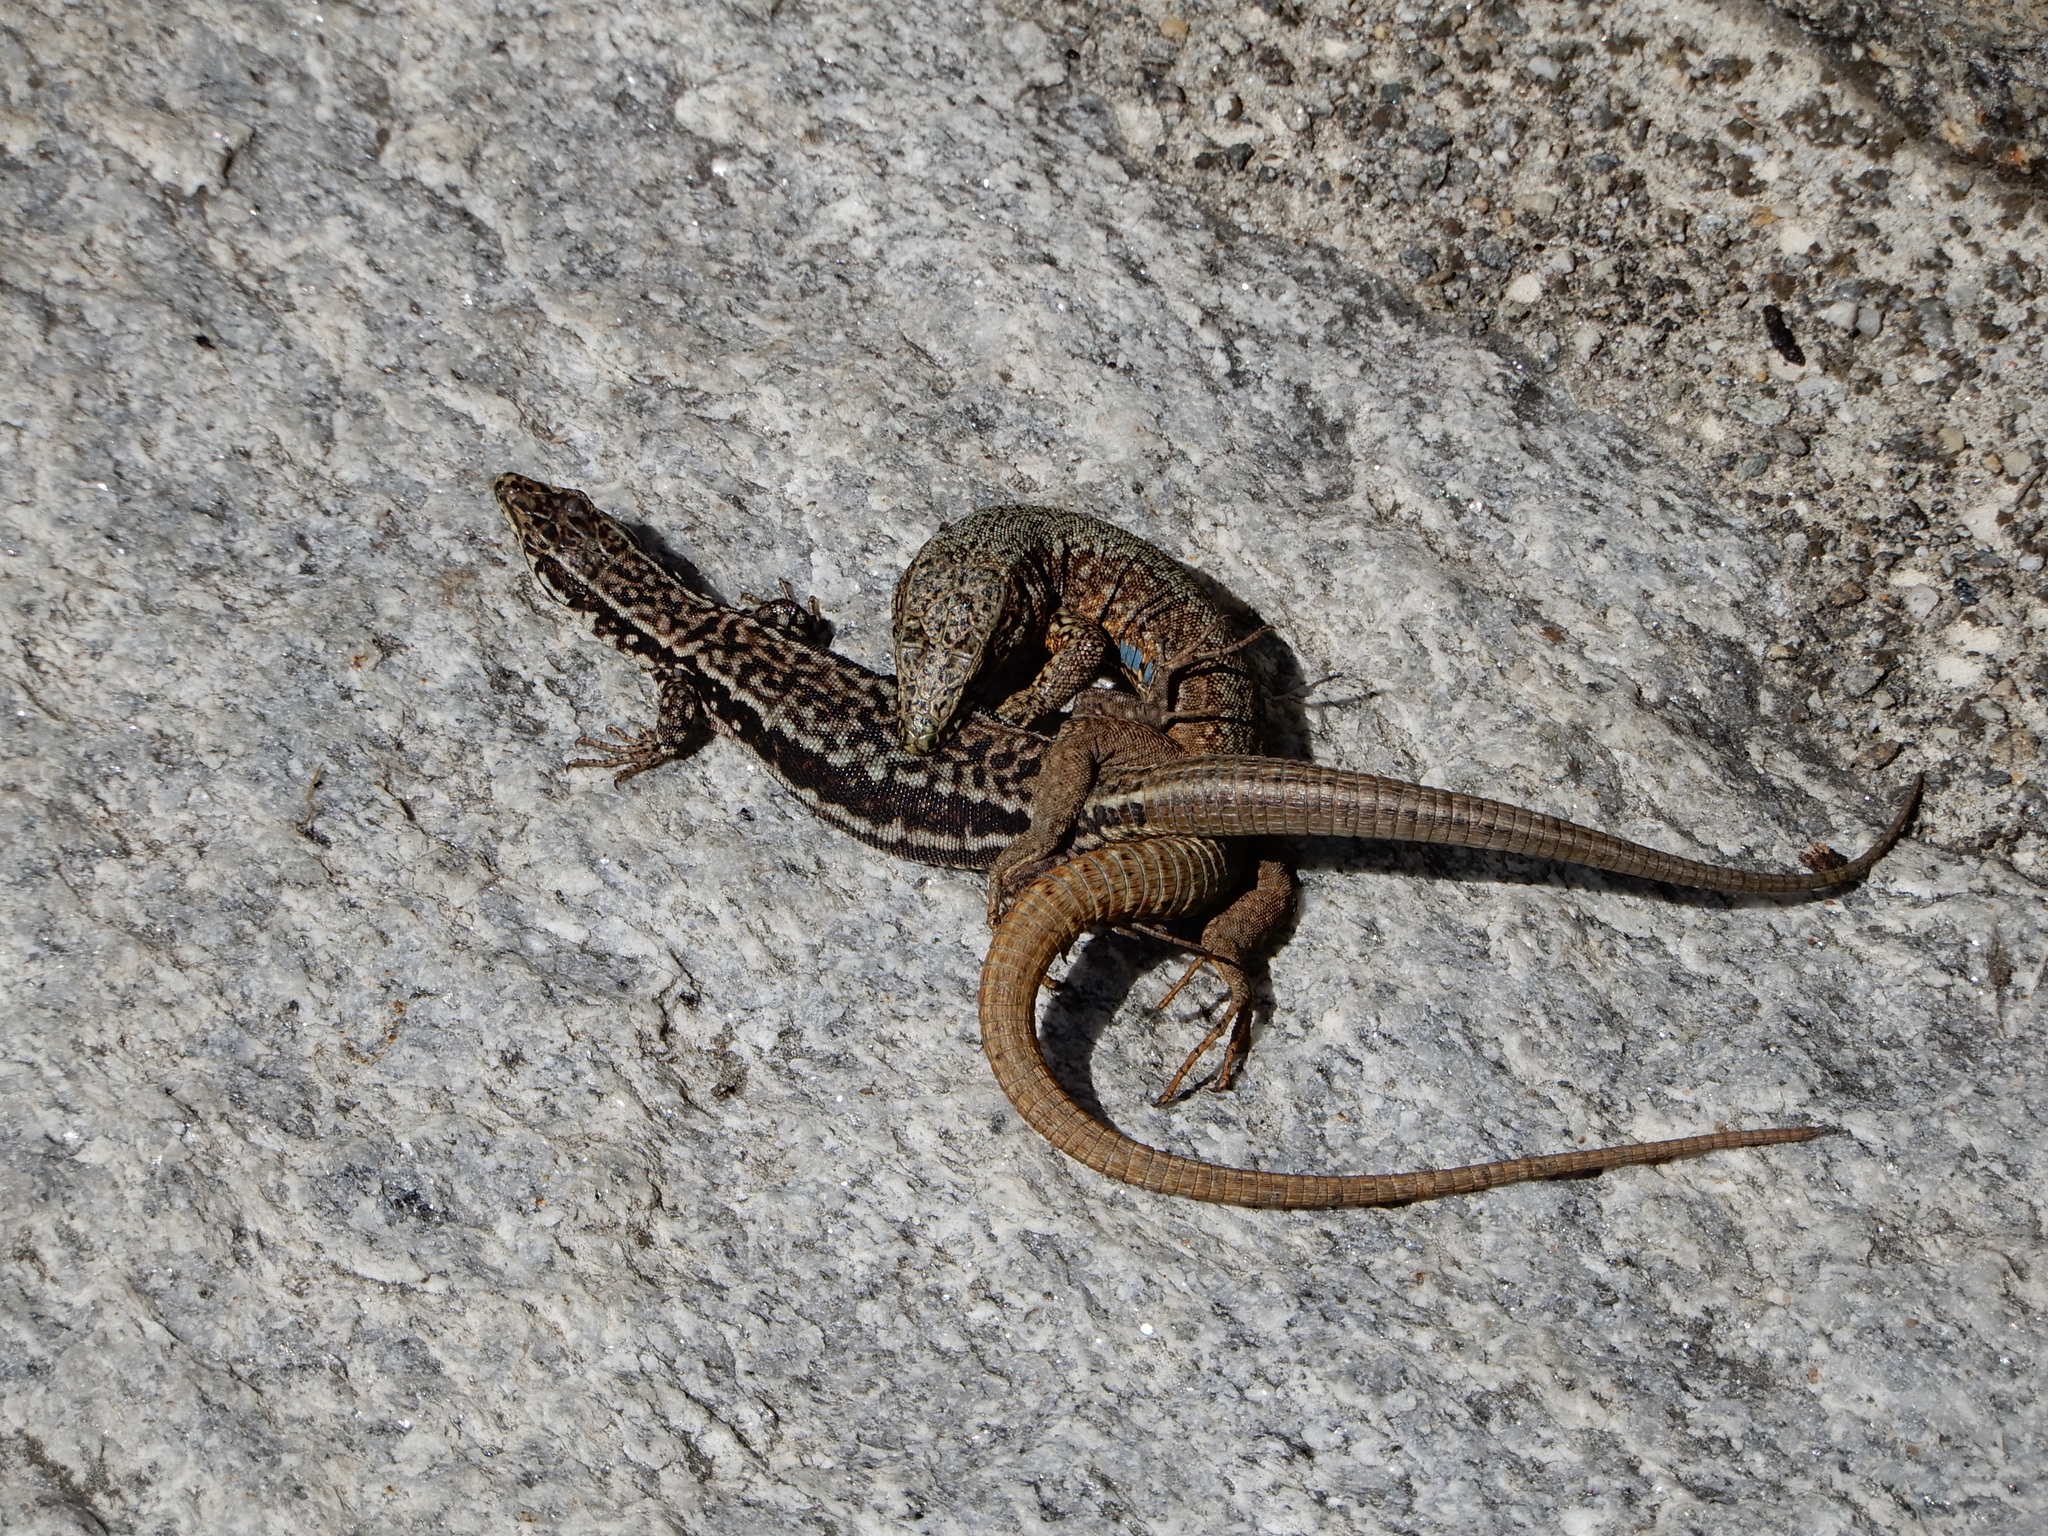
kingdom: Animalia
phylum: Chordata
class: Squamata
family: Lacertidae
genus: Podarcis
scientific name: Podarcis muralis
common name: Common wall lizard
